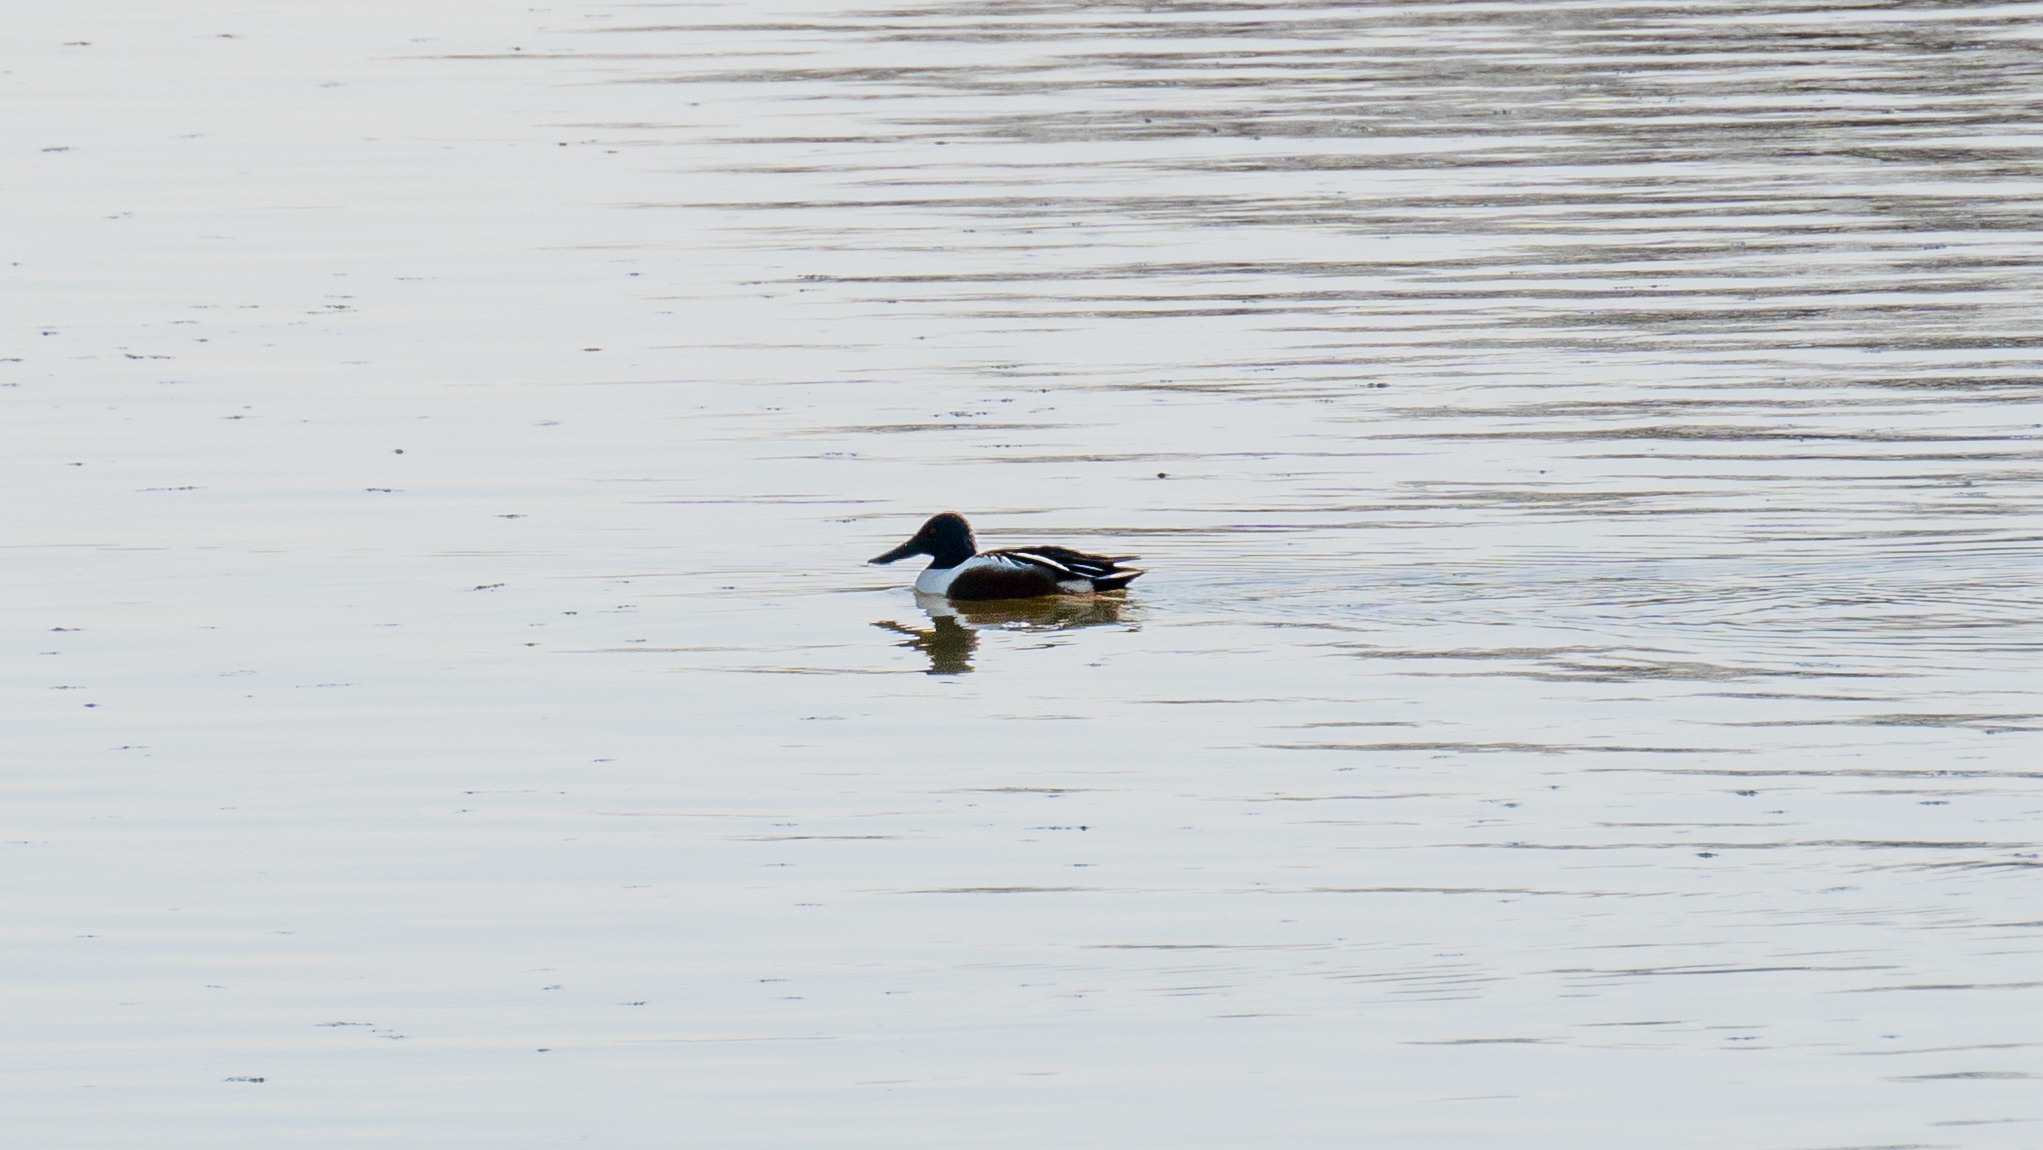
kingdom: Animalia
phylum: Chordata
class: Aves
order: Anseriformes
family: Anatidae
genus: Spatula
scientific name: Spatula clypeata
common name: Northern shoveler
